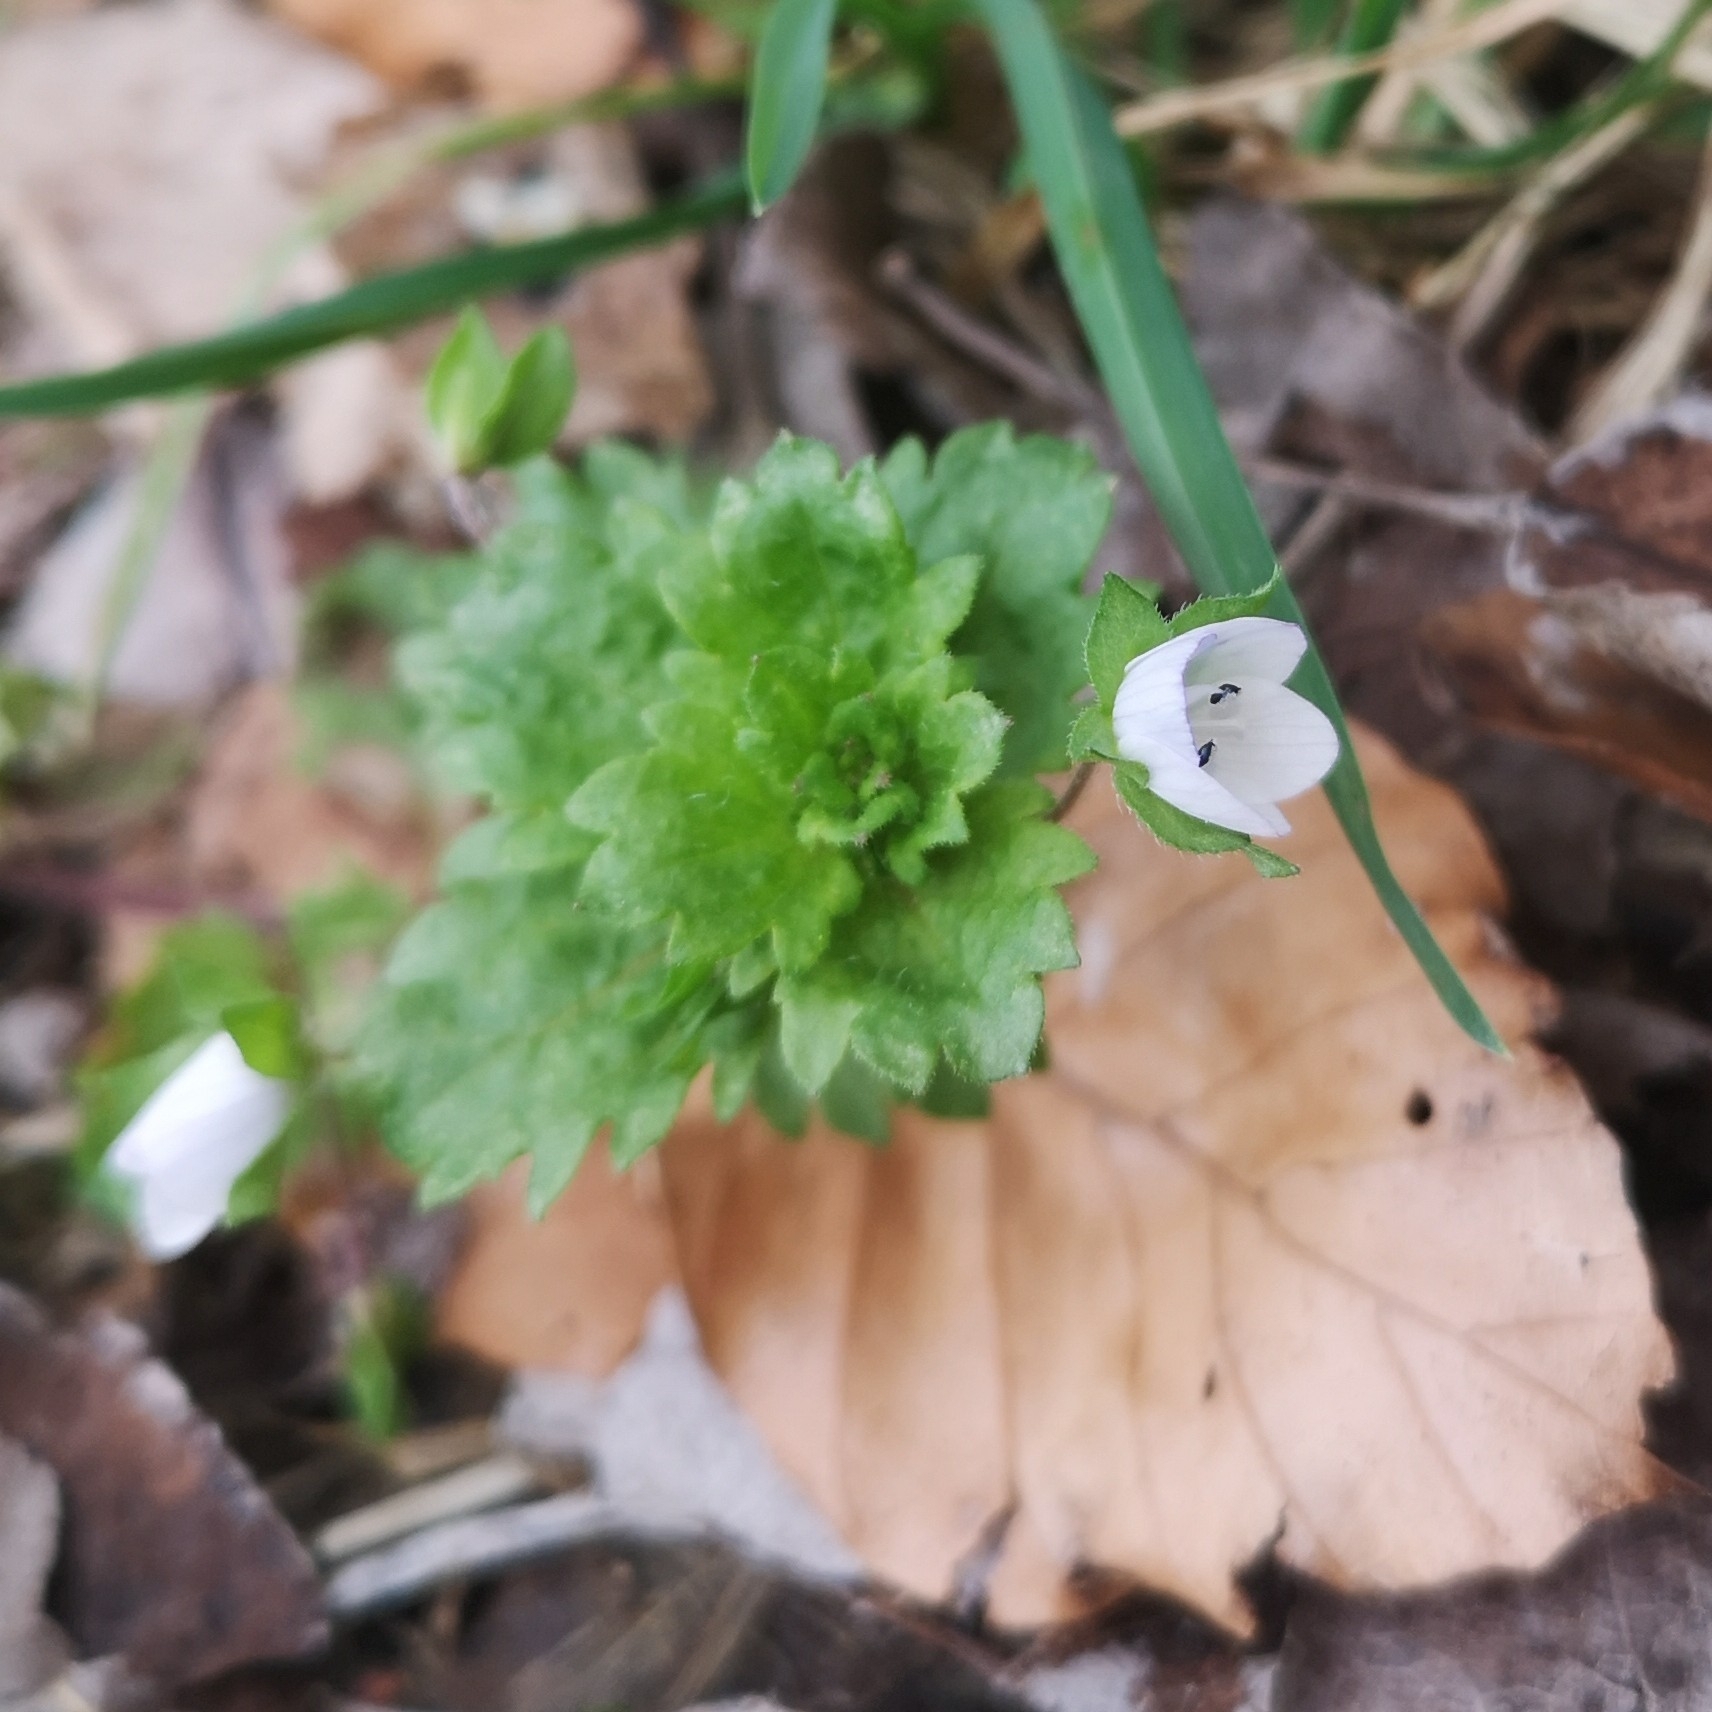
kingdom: Plantae
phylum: Tracheophyta
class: Magnoliopsida
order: Lamiales
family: Plantaginaceae
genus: Veronica
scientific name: Veronica persica
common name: Common field-speedwell
